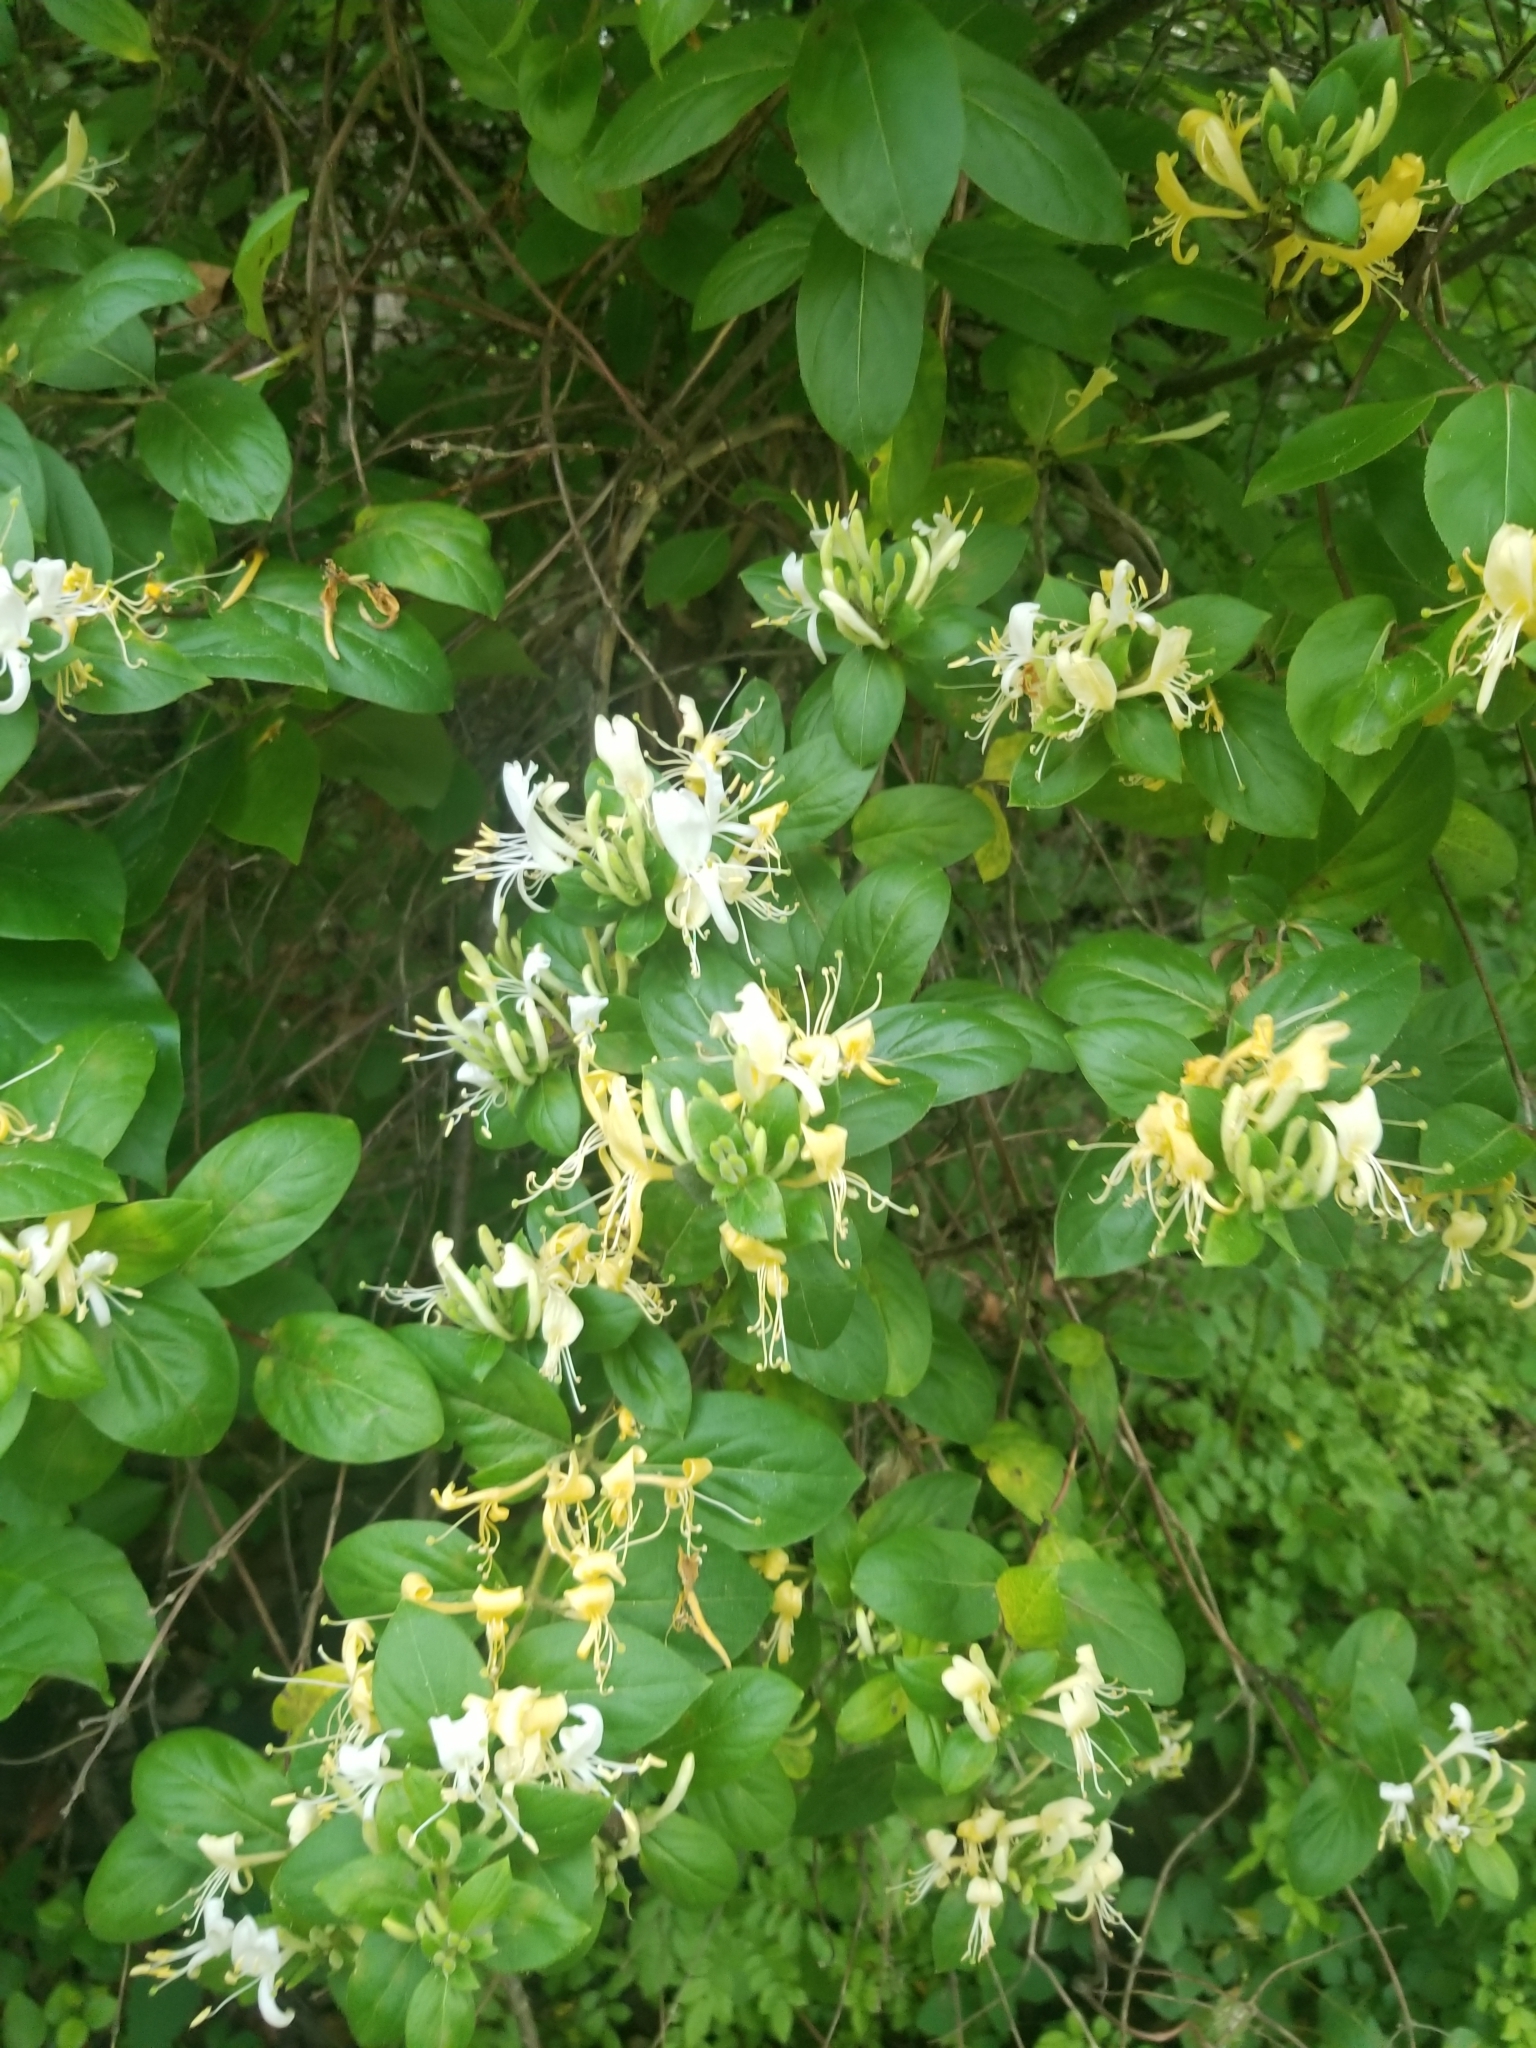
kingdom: Plantae
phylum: Tracheophyta
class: Magnoliopsida
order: Dipsacales
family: Caprifoliaceae
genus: Lonicera
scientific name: Lonicera japonica
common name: Japanese honeysuckle
